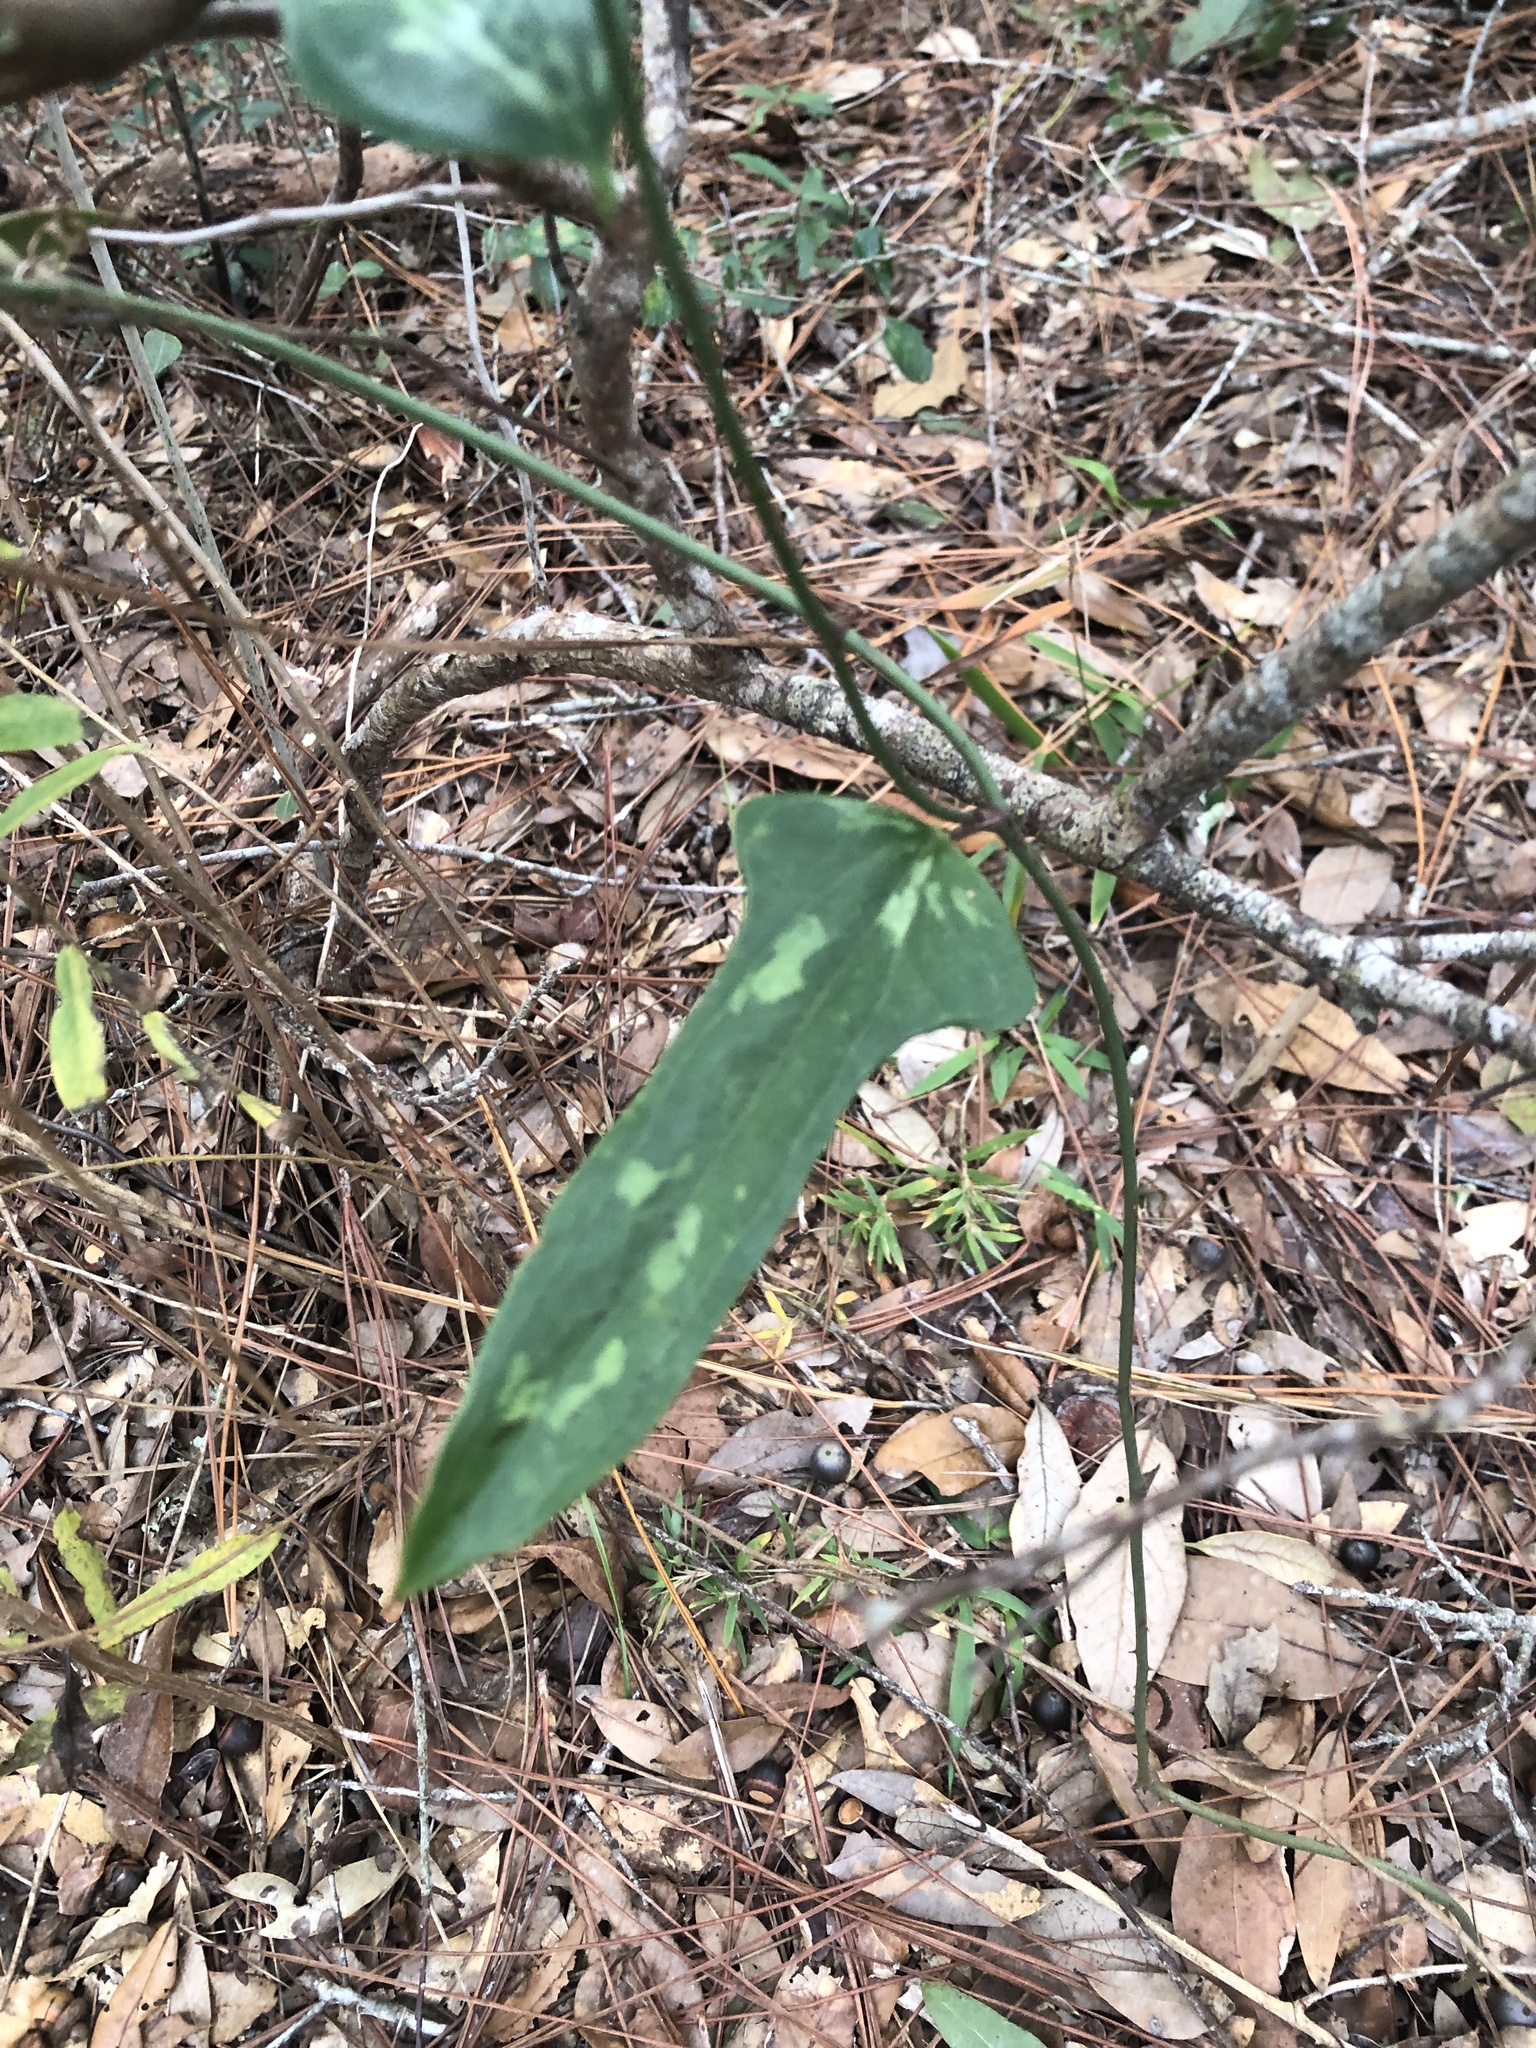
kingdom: Plantae
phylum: Tracheophyta
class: Liliopsida
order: Liliales
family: Smilacaceae
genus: Smilax
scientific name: Smilax auriculata
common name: Wild bamboo
